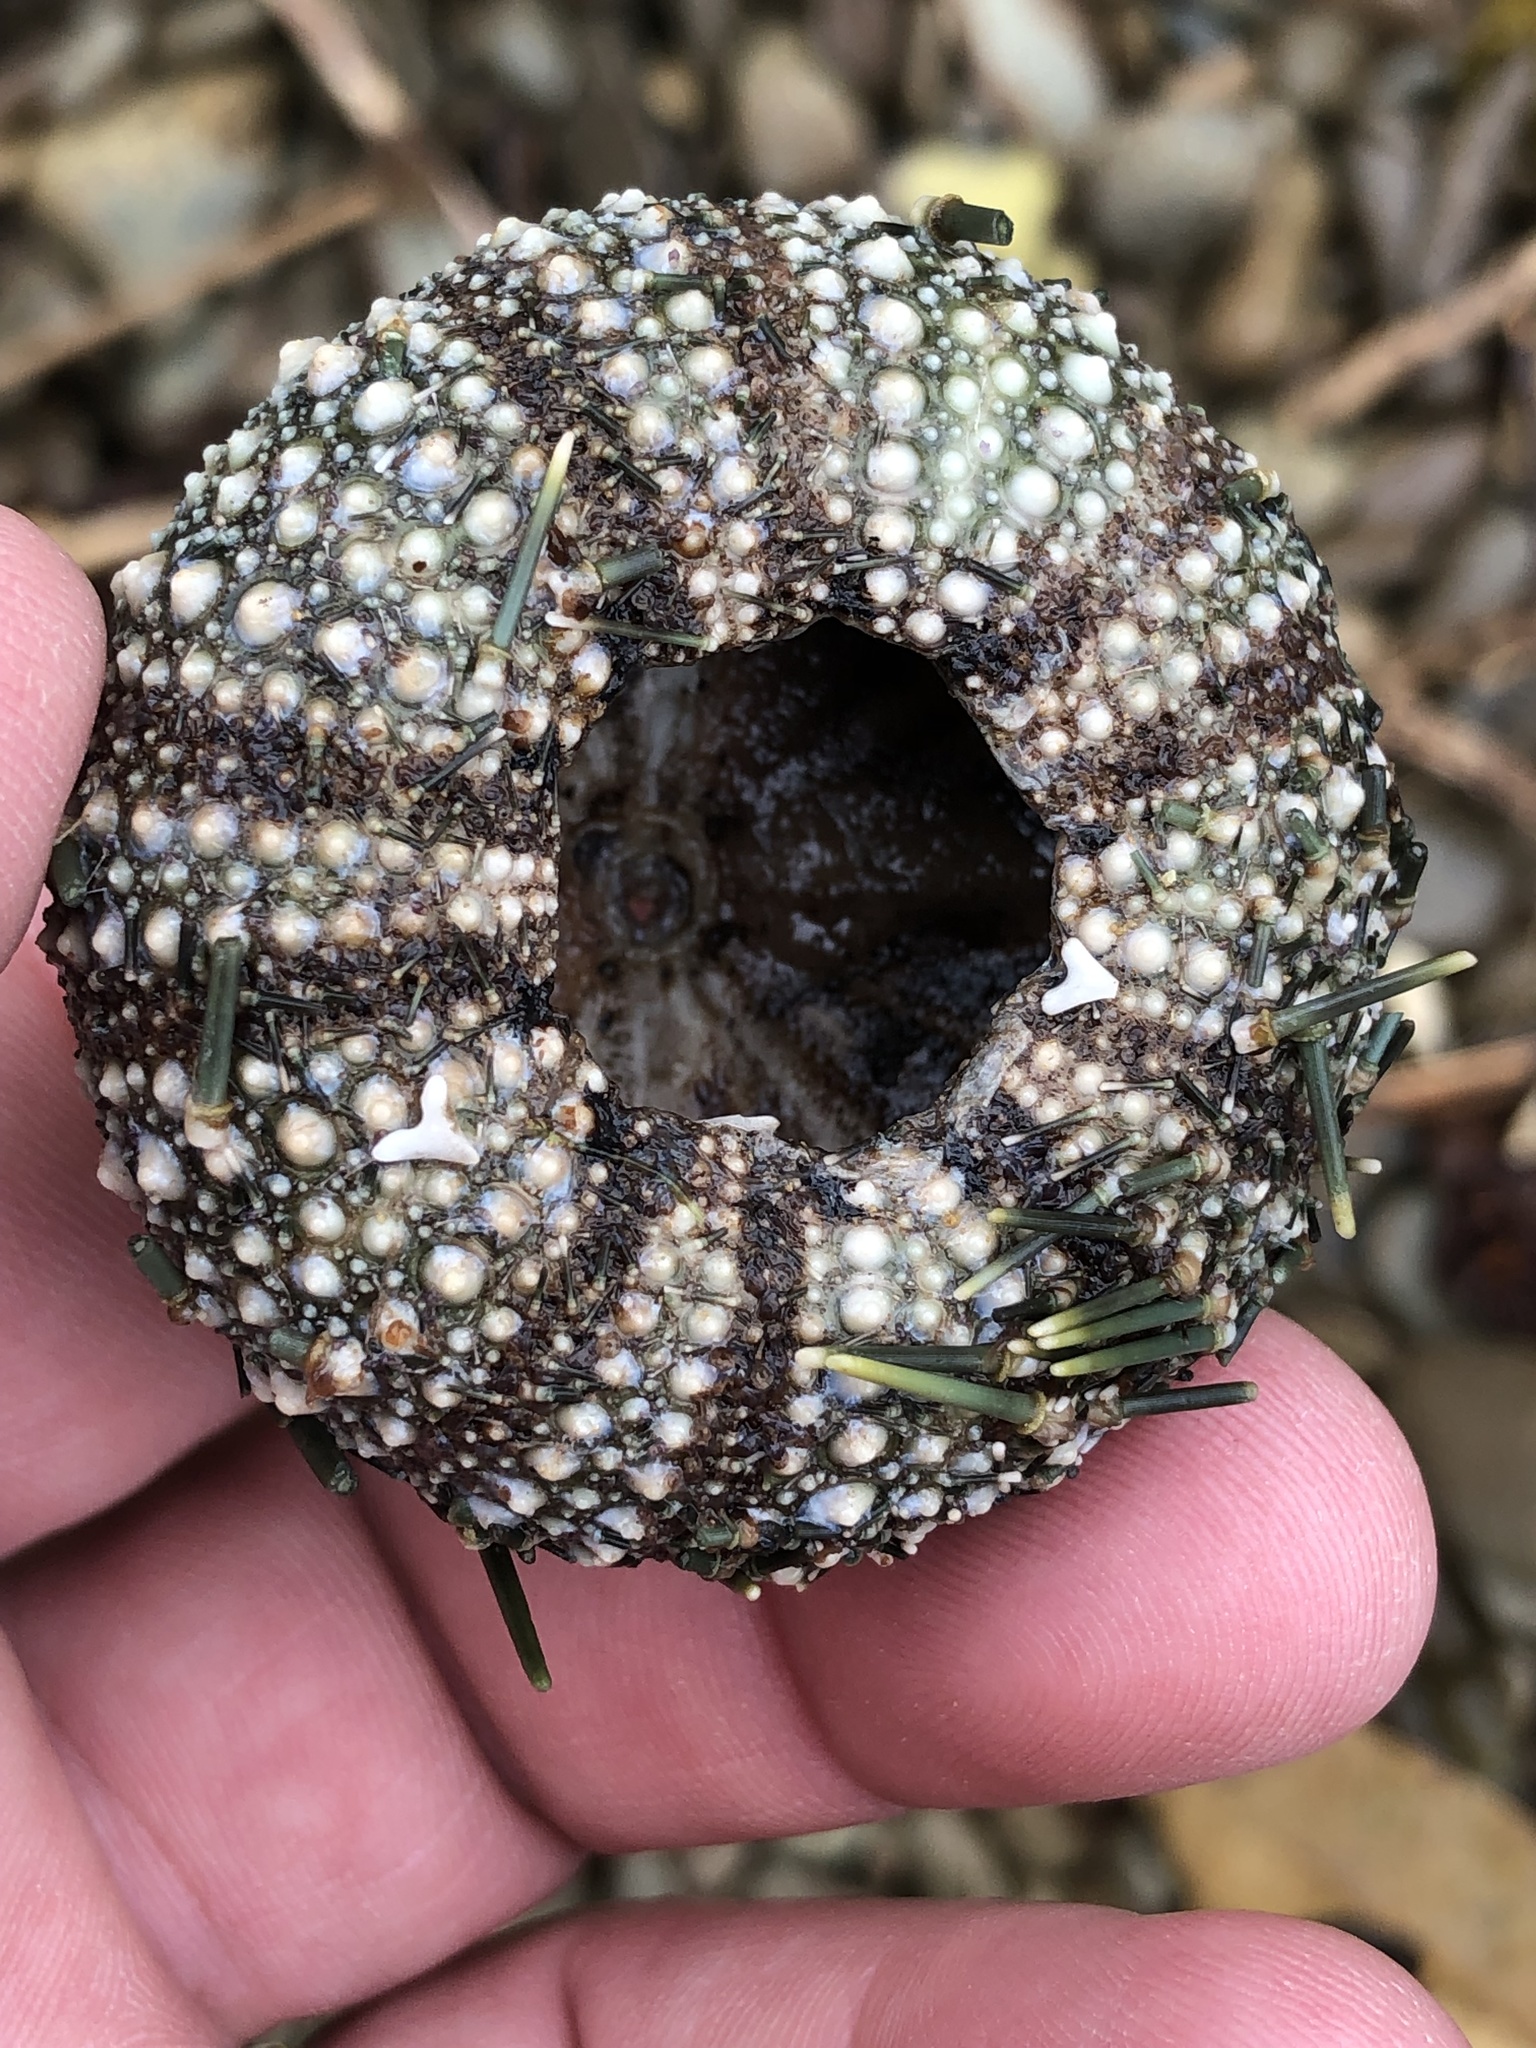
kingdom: Animalia
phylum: Echinodermata
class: Echinoidea
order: Camarodonta
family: Echinometridae
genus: Evechinus
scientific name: Evechinus chloroticus
